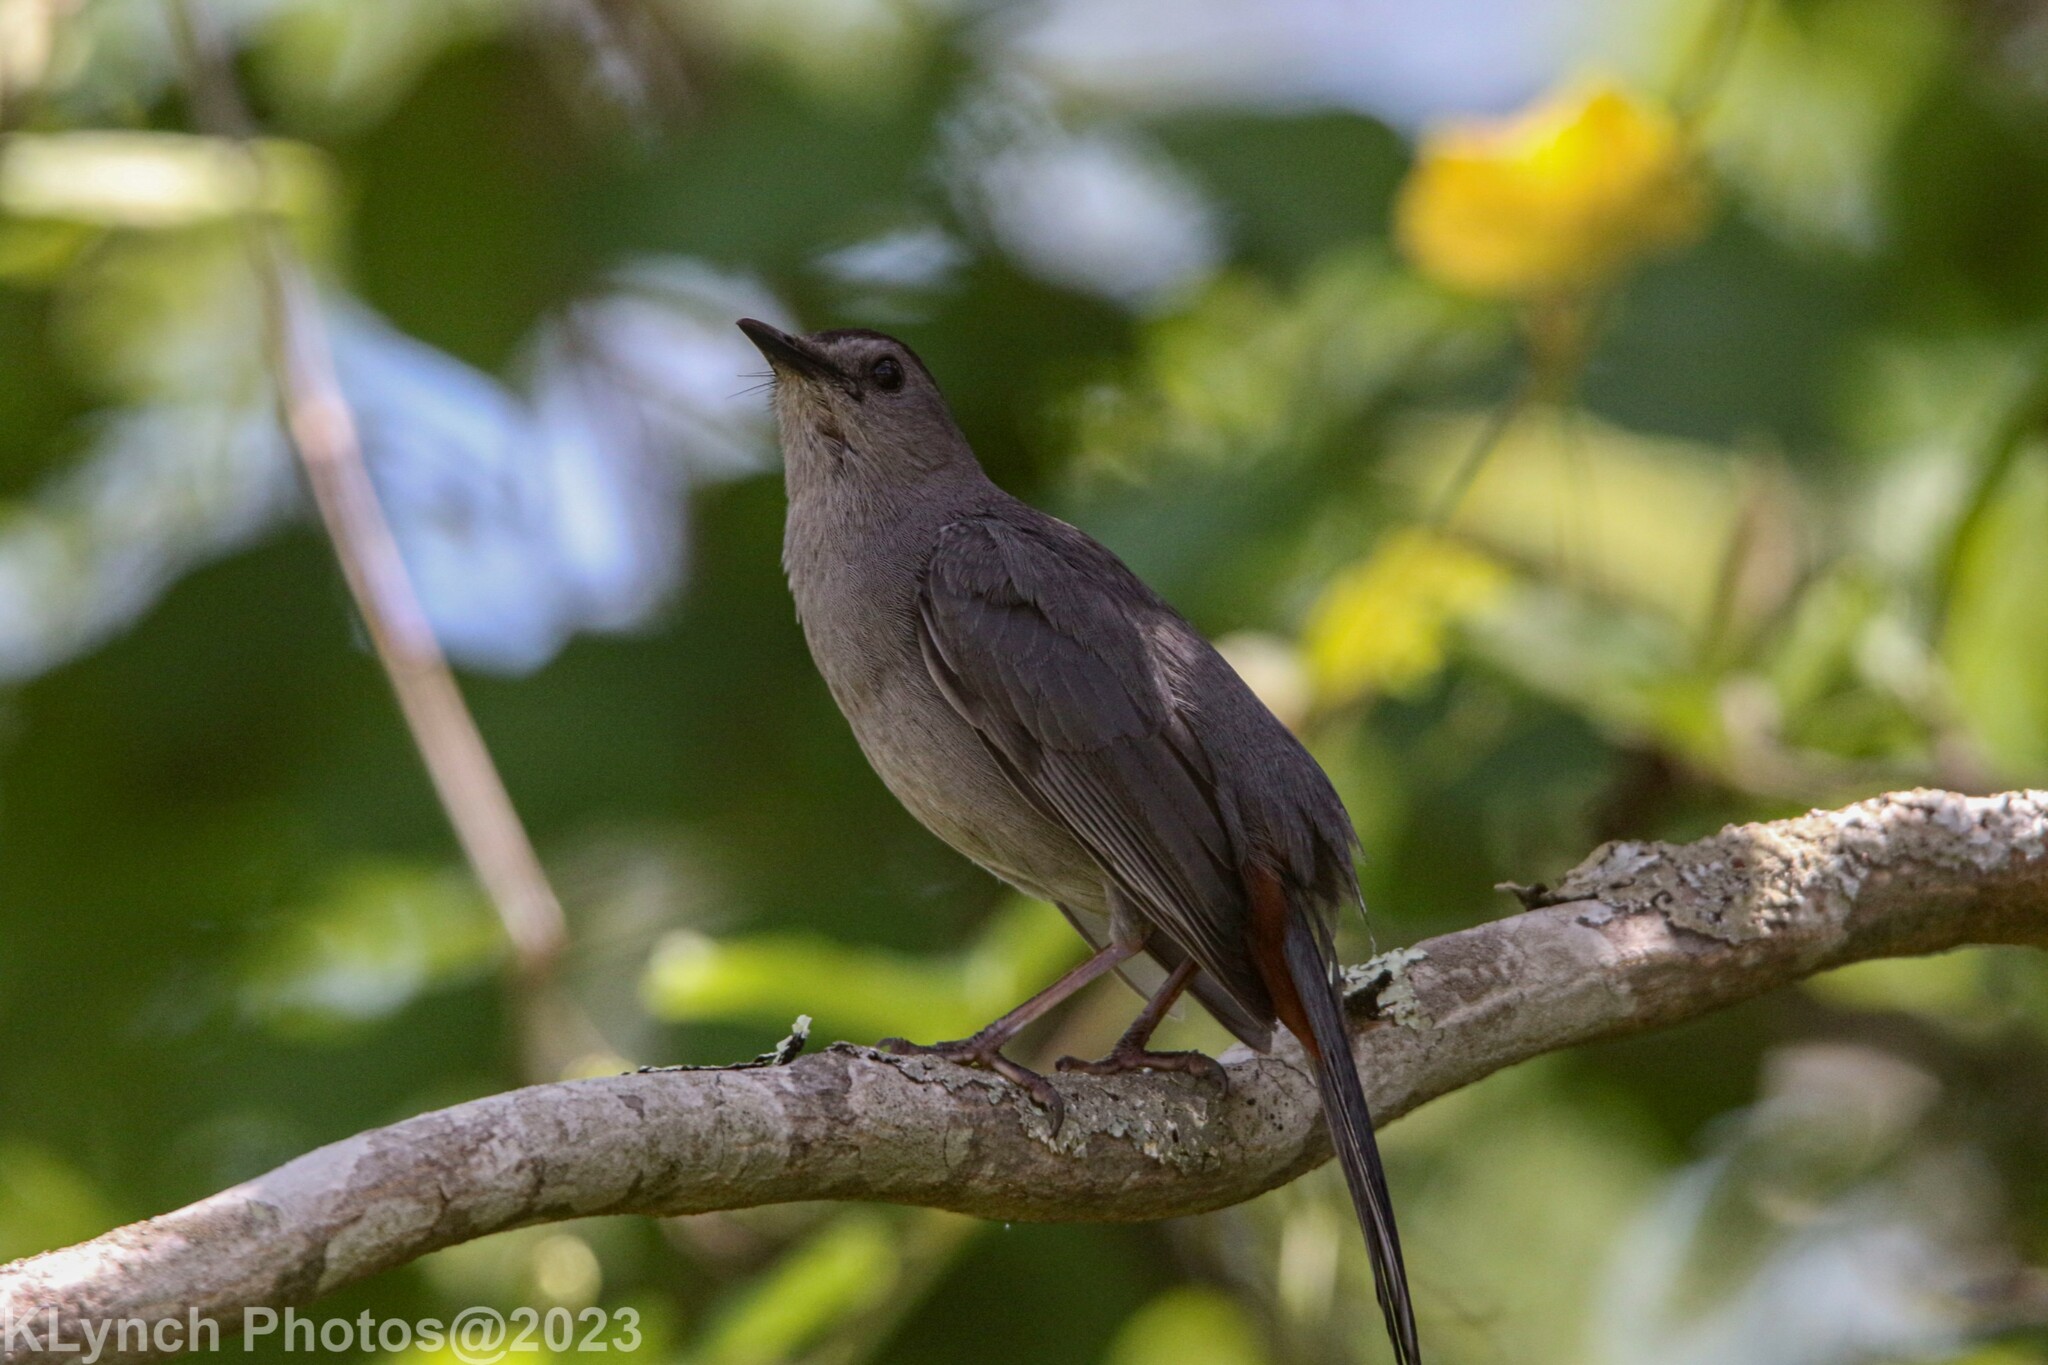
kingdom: Animalia
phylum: Chordata
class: Aves
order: Passeriformes
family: Mimidae
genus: Dumetella
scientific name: Dumetella carolinensis
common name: Gray catbird
